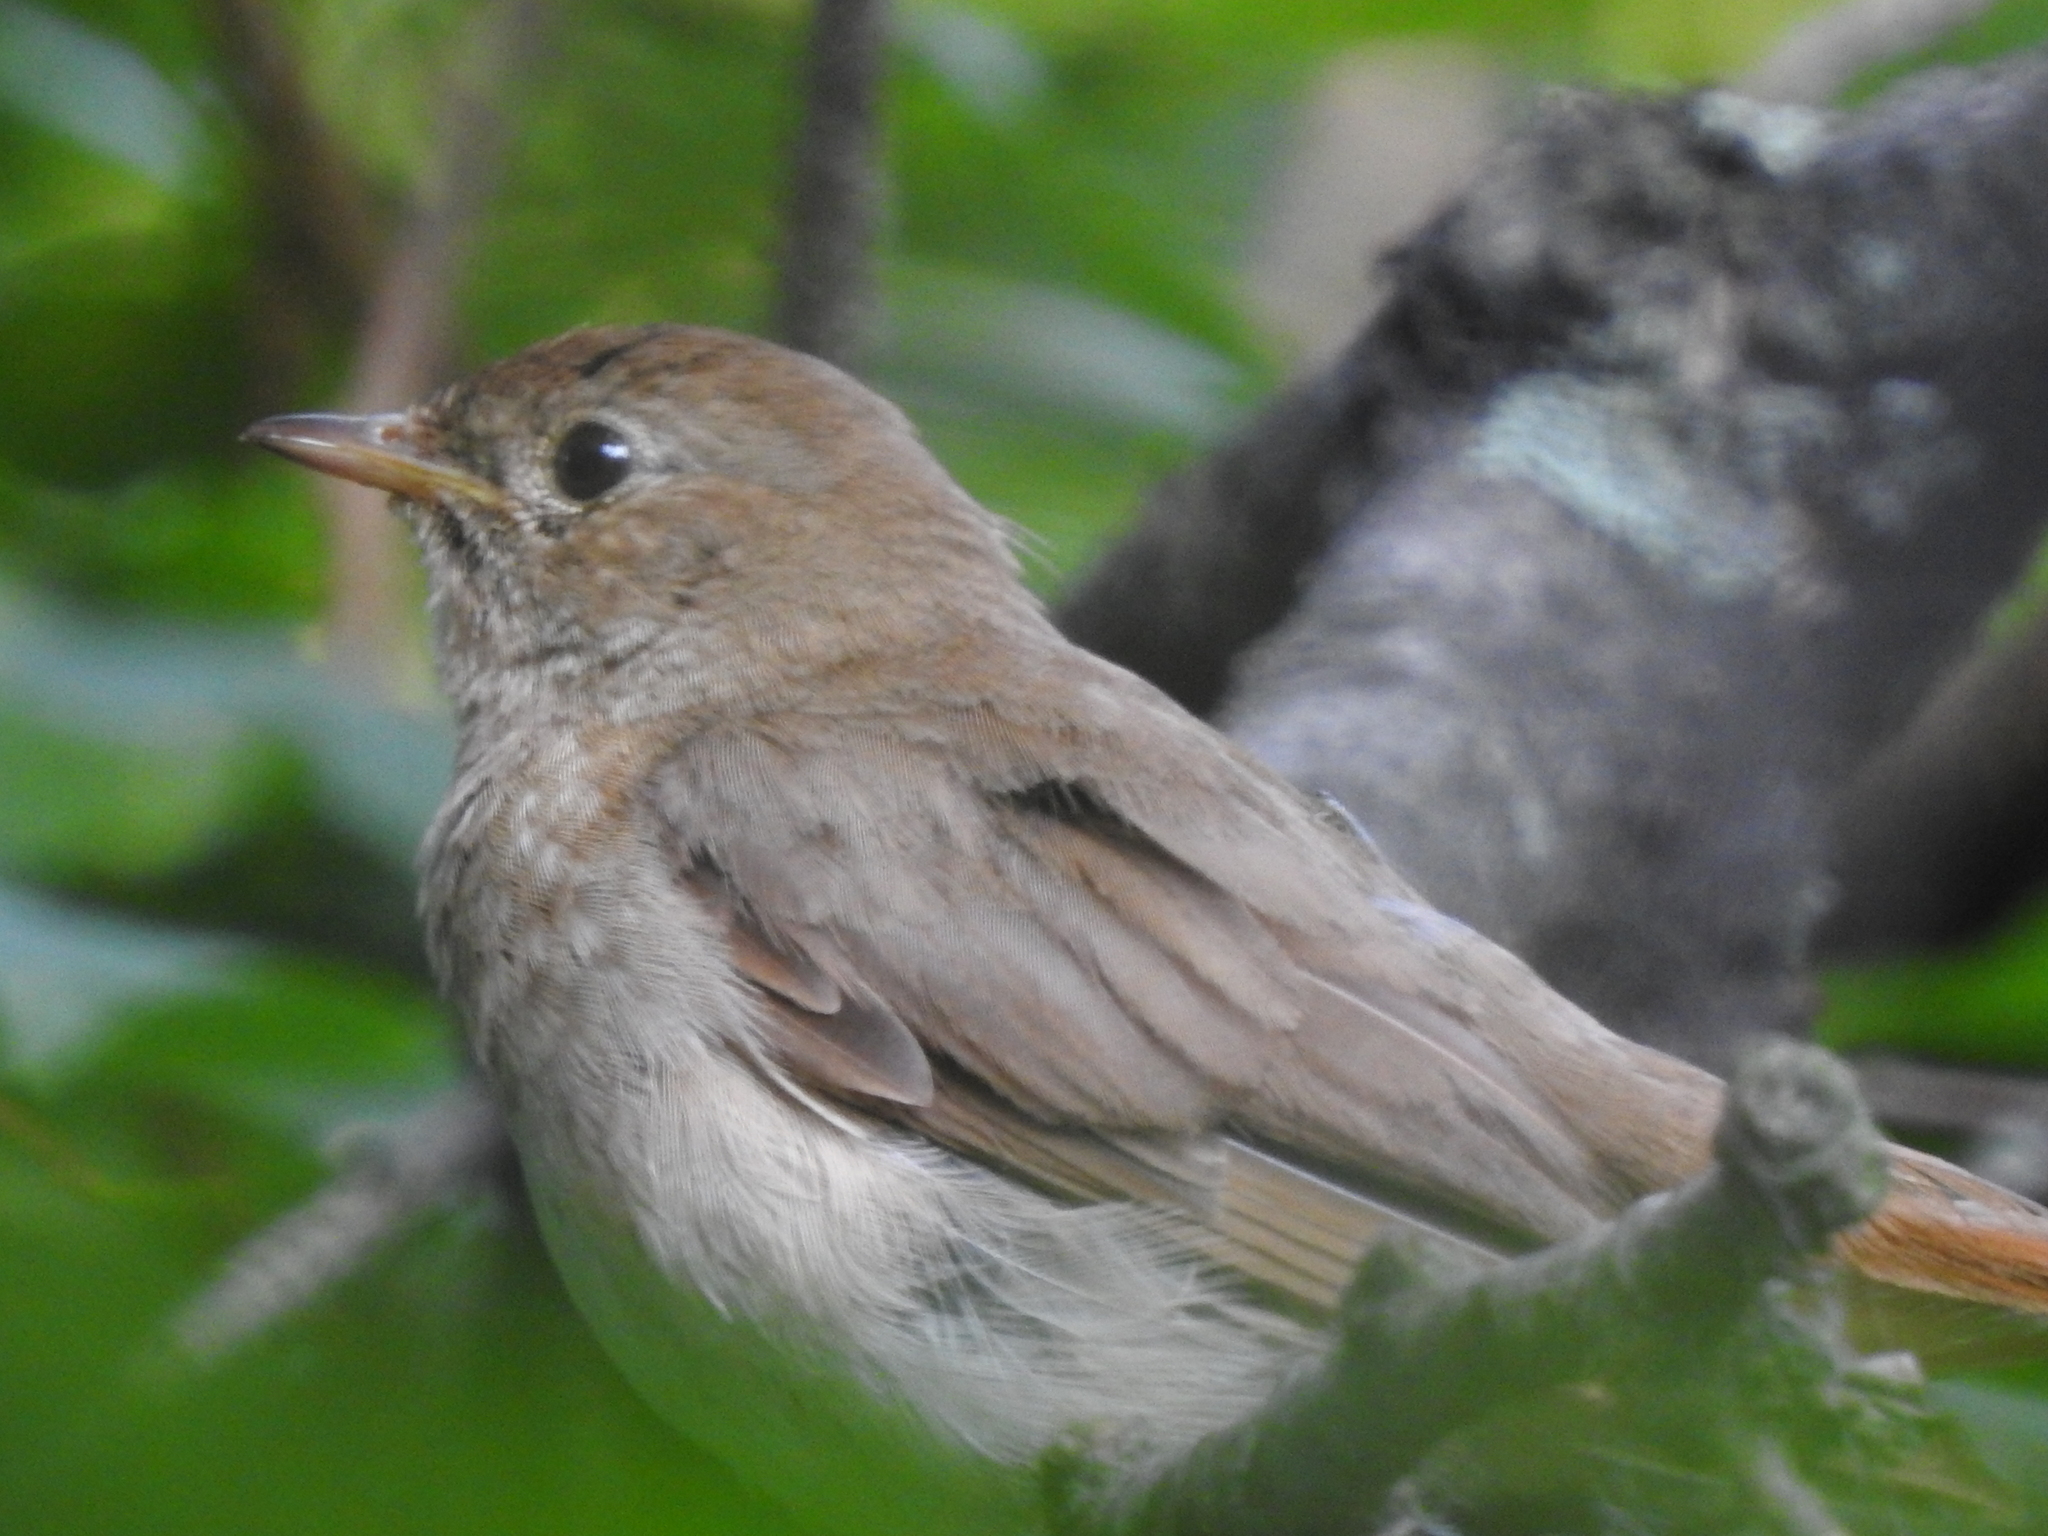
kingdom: Animalia
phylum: Chordata
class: Aves
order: Passeriformes
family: Muscicapidae
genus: Luscinia
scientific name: Luscinia luscinia
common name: Thrush nightingale
